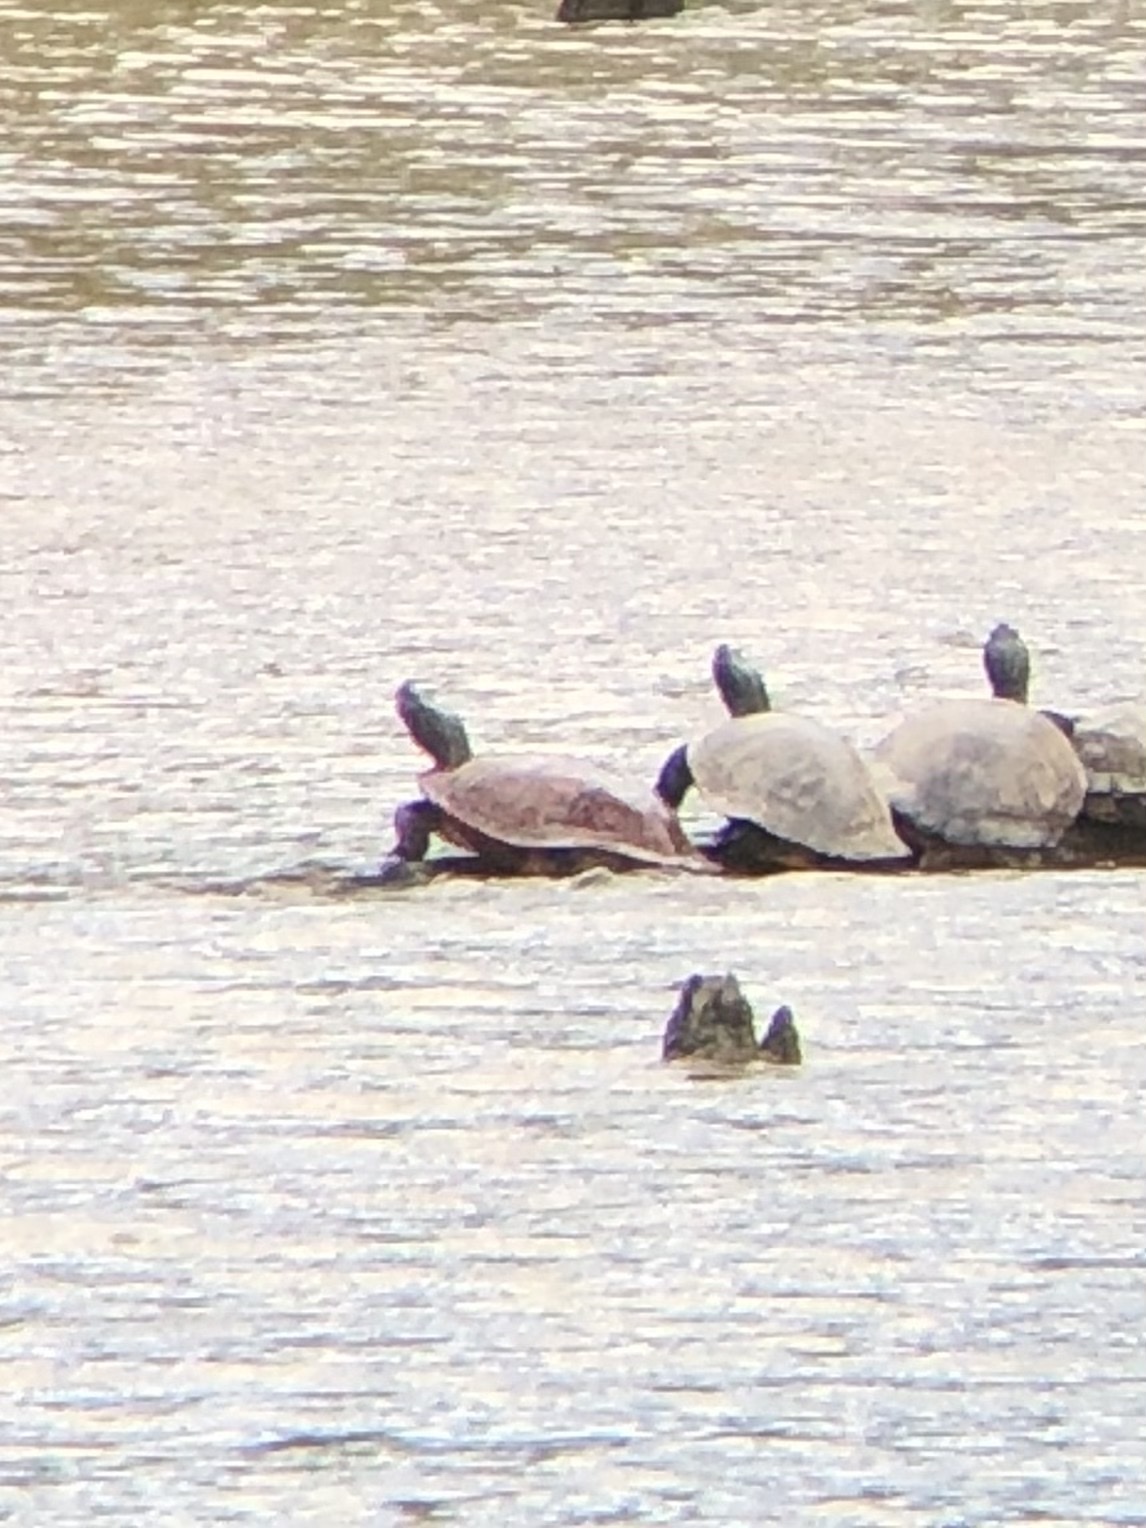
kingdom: Animalia
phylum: Chordata
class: Testudines
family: Emydidae
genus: Pseudemys
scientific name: Pseudemys rubriventris
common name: American red-bellied turtle
